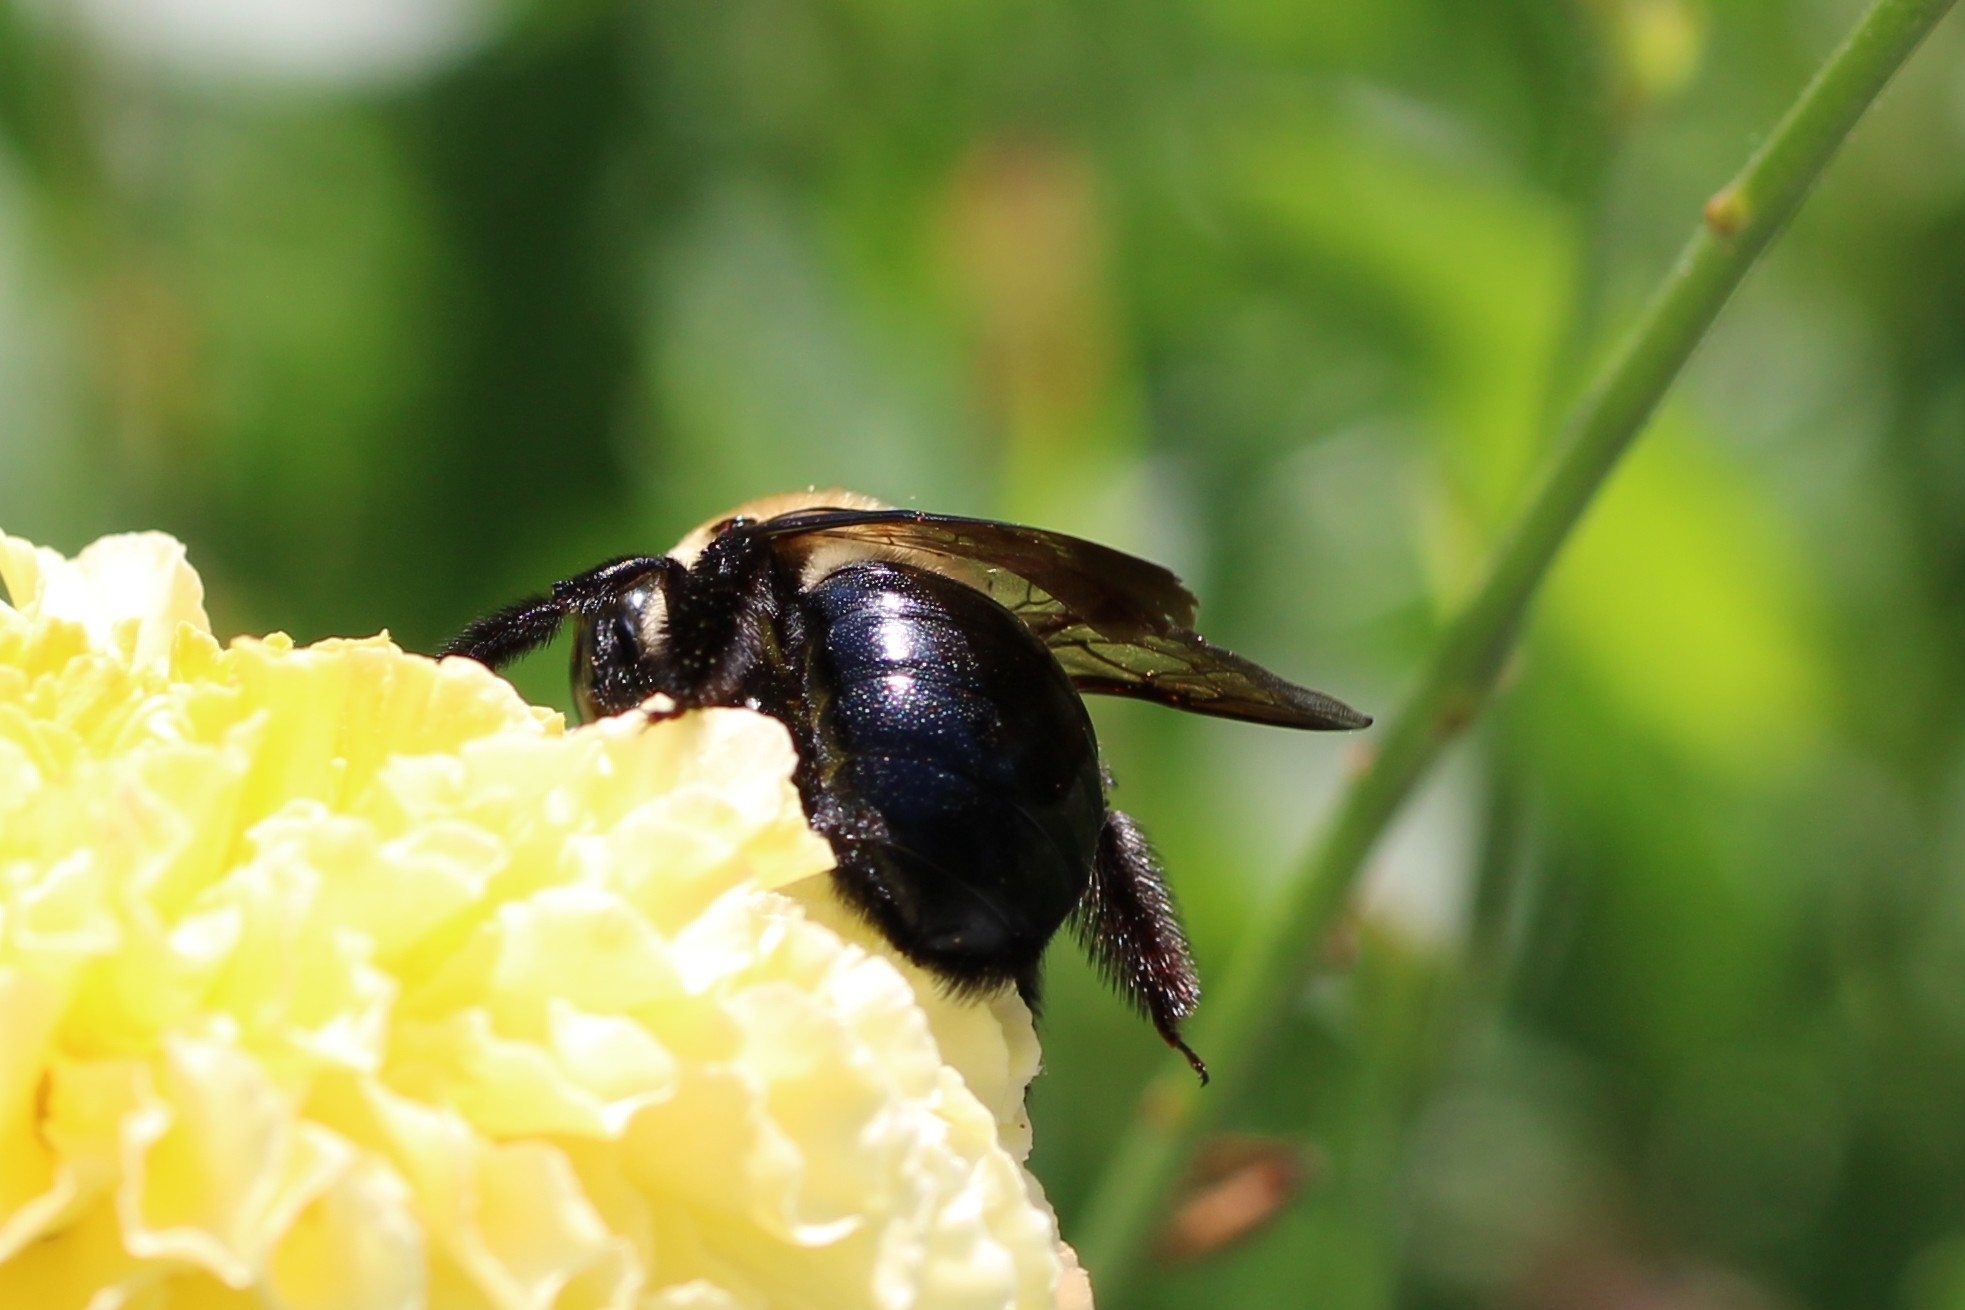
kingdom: Animalia
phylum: Arthropoda
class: Insecta
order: Hymenoptera
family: Apidae
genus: Xylocopa
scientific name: Xylocopa virginica
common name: Carpenter bee
